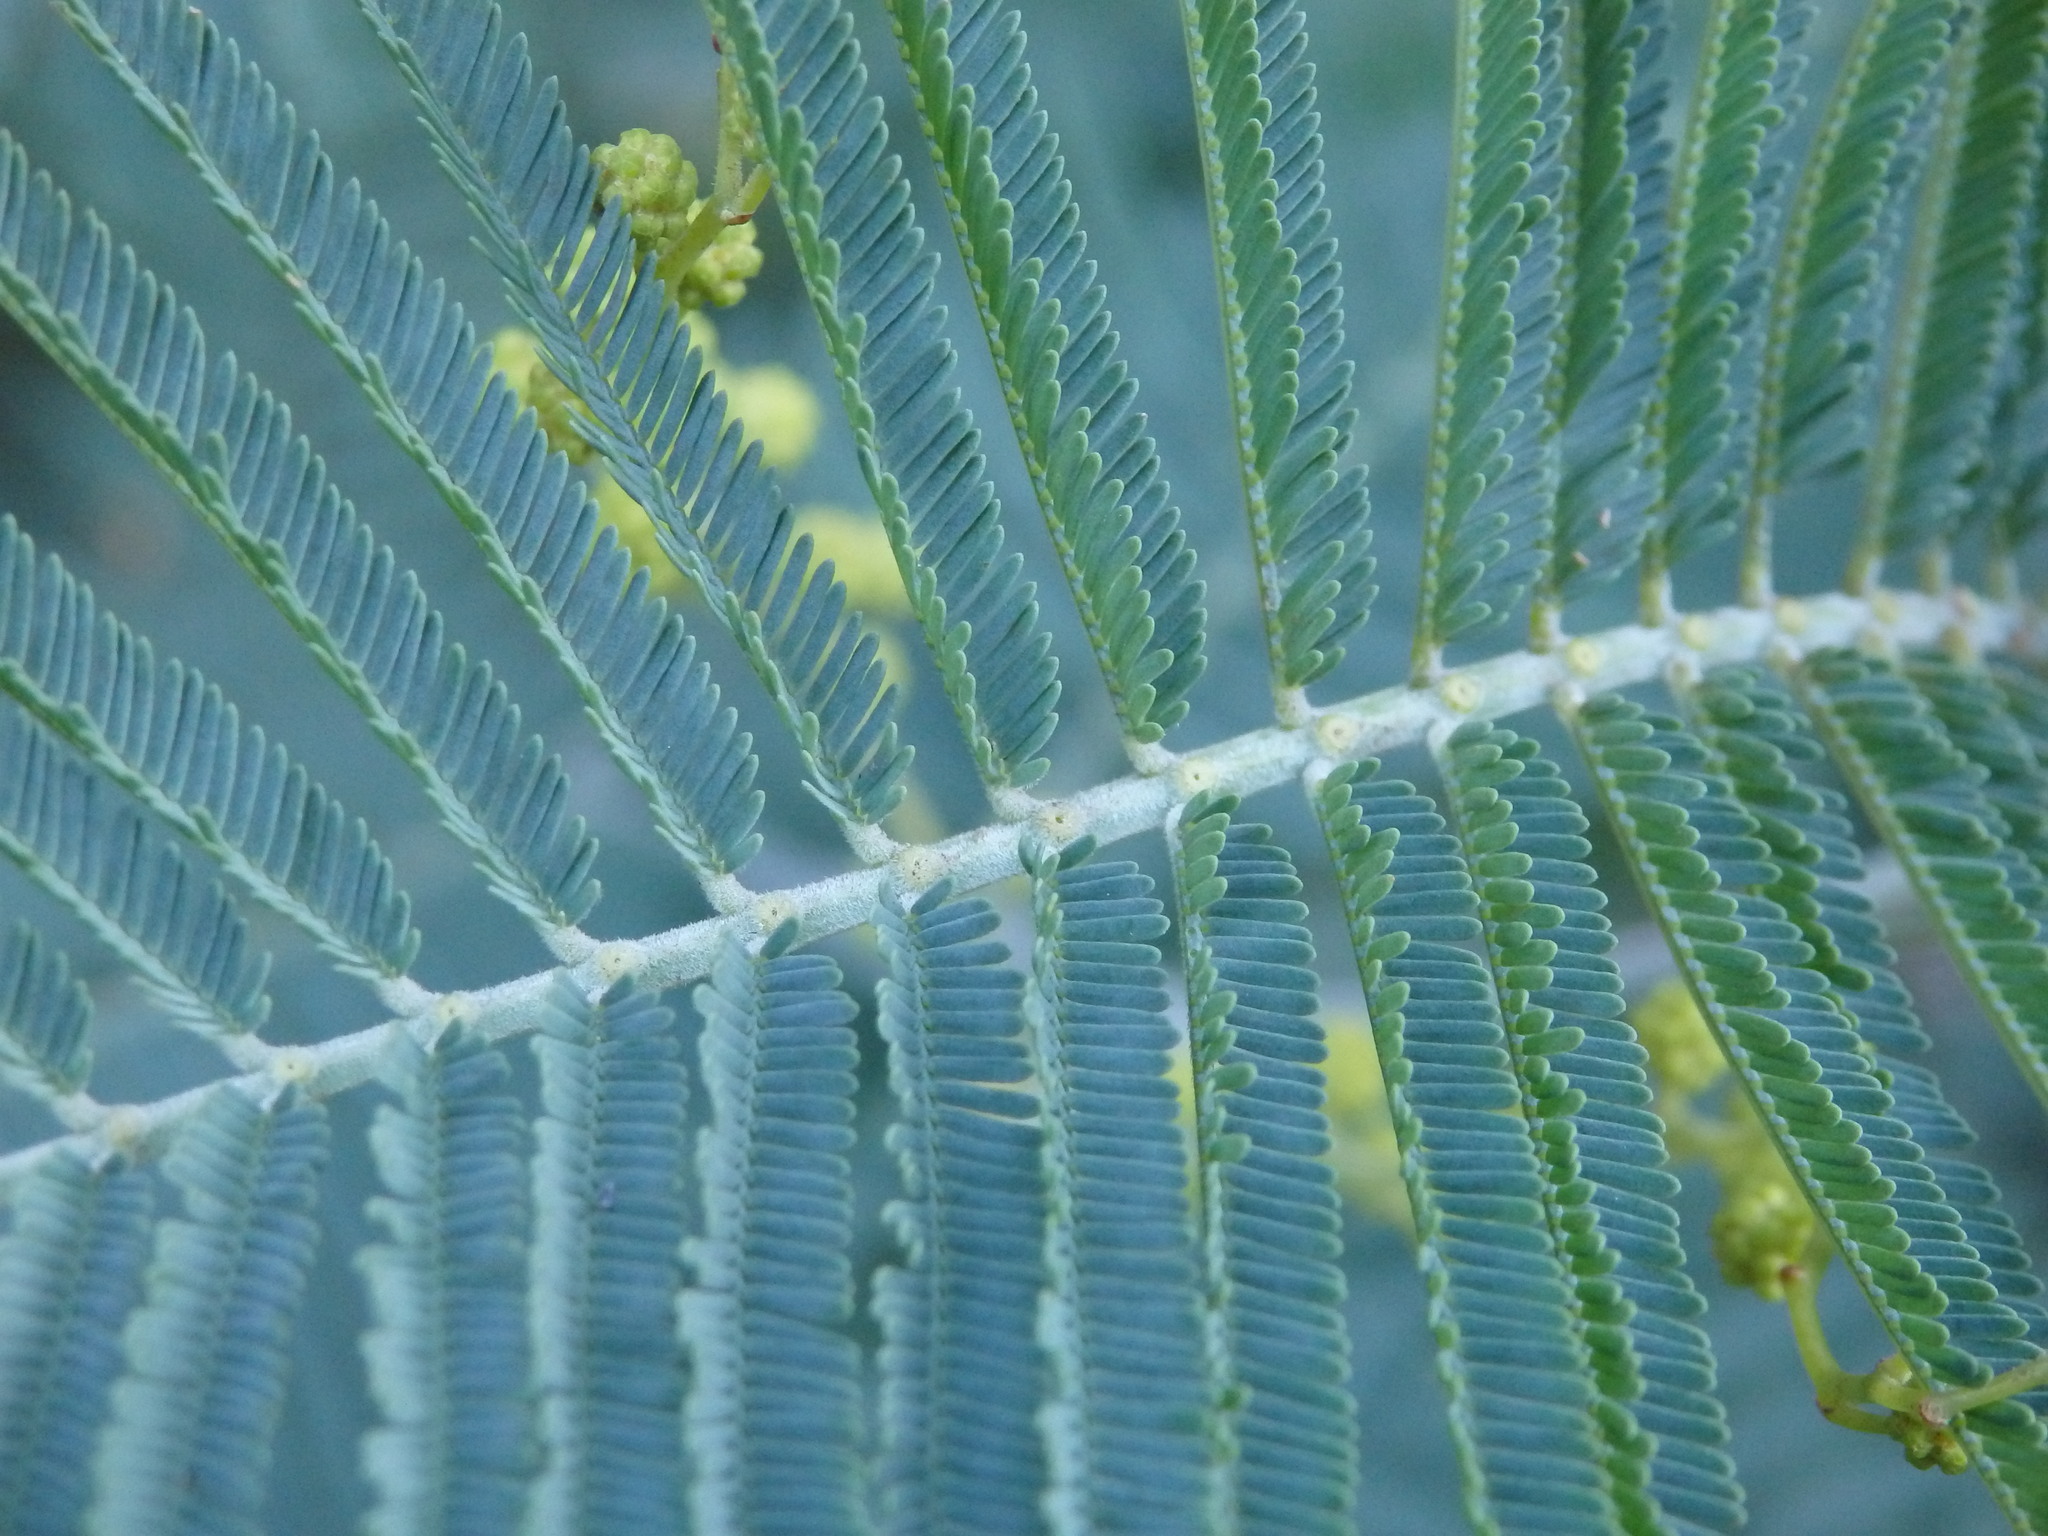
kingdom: Plantae
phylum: Tracheophyta
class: Magnoliopsida
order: Fabales
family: Fabaceae
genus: Acacia
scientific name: Acacia dealbata
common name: Silver wattle
